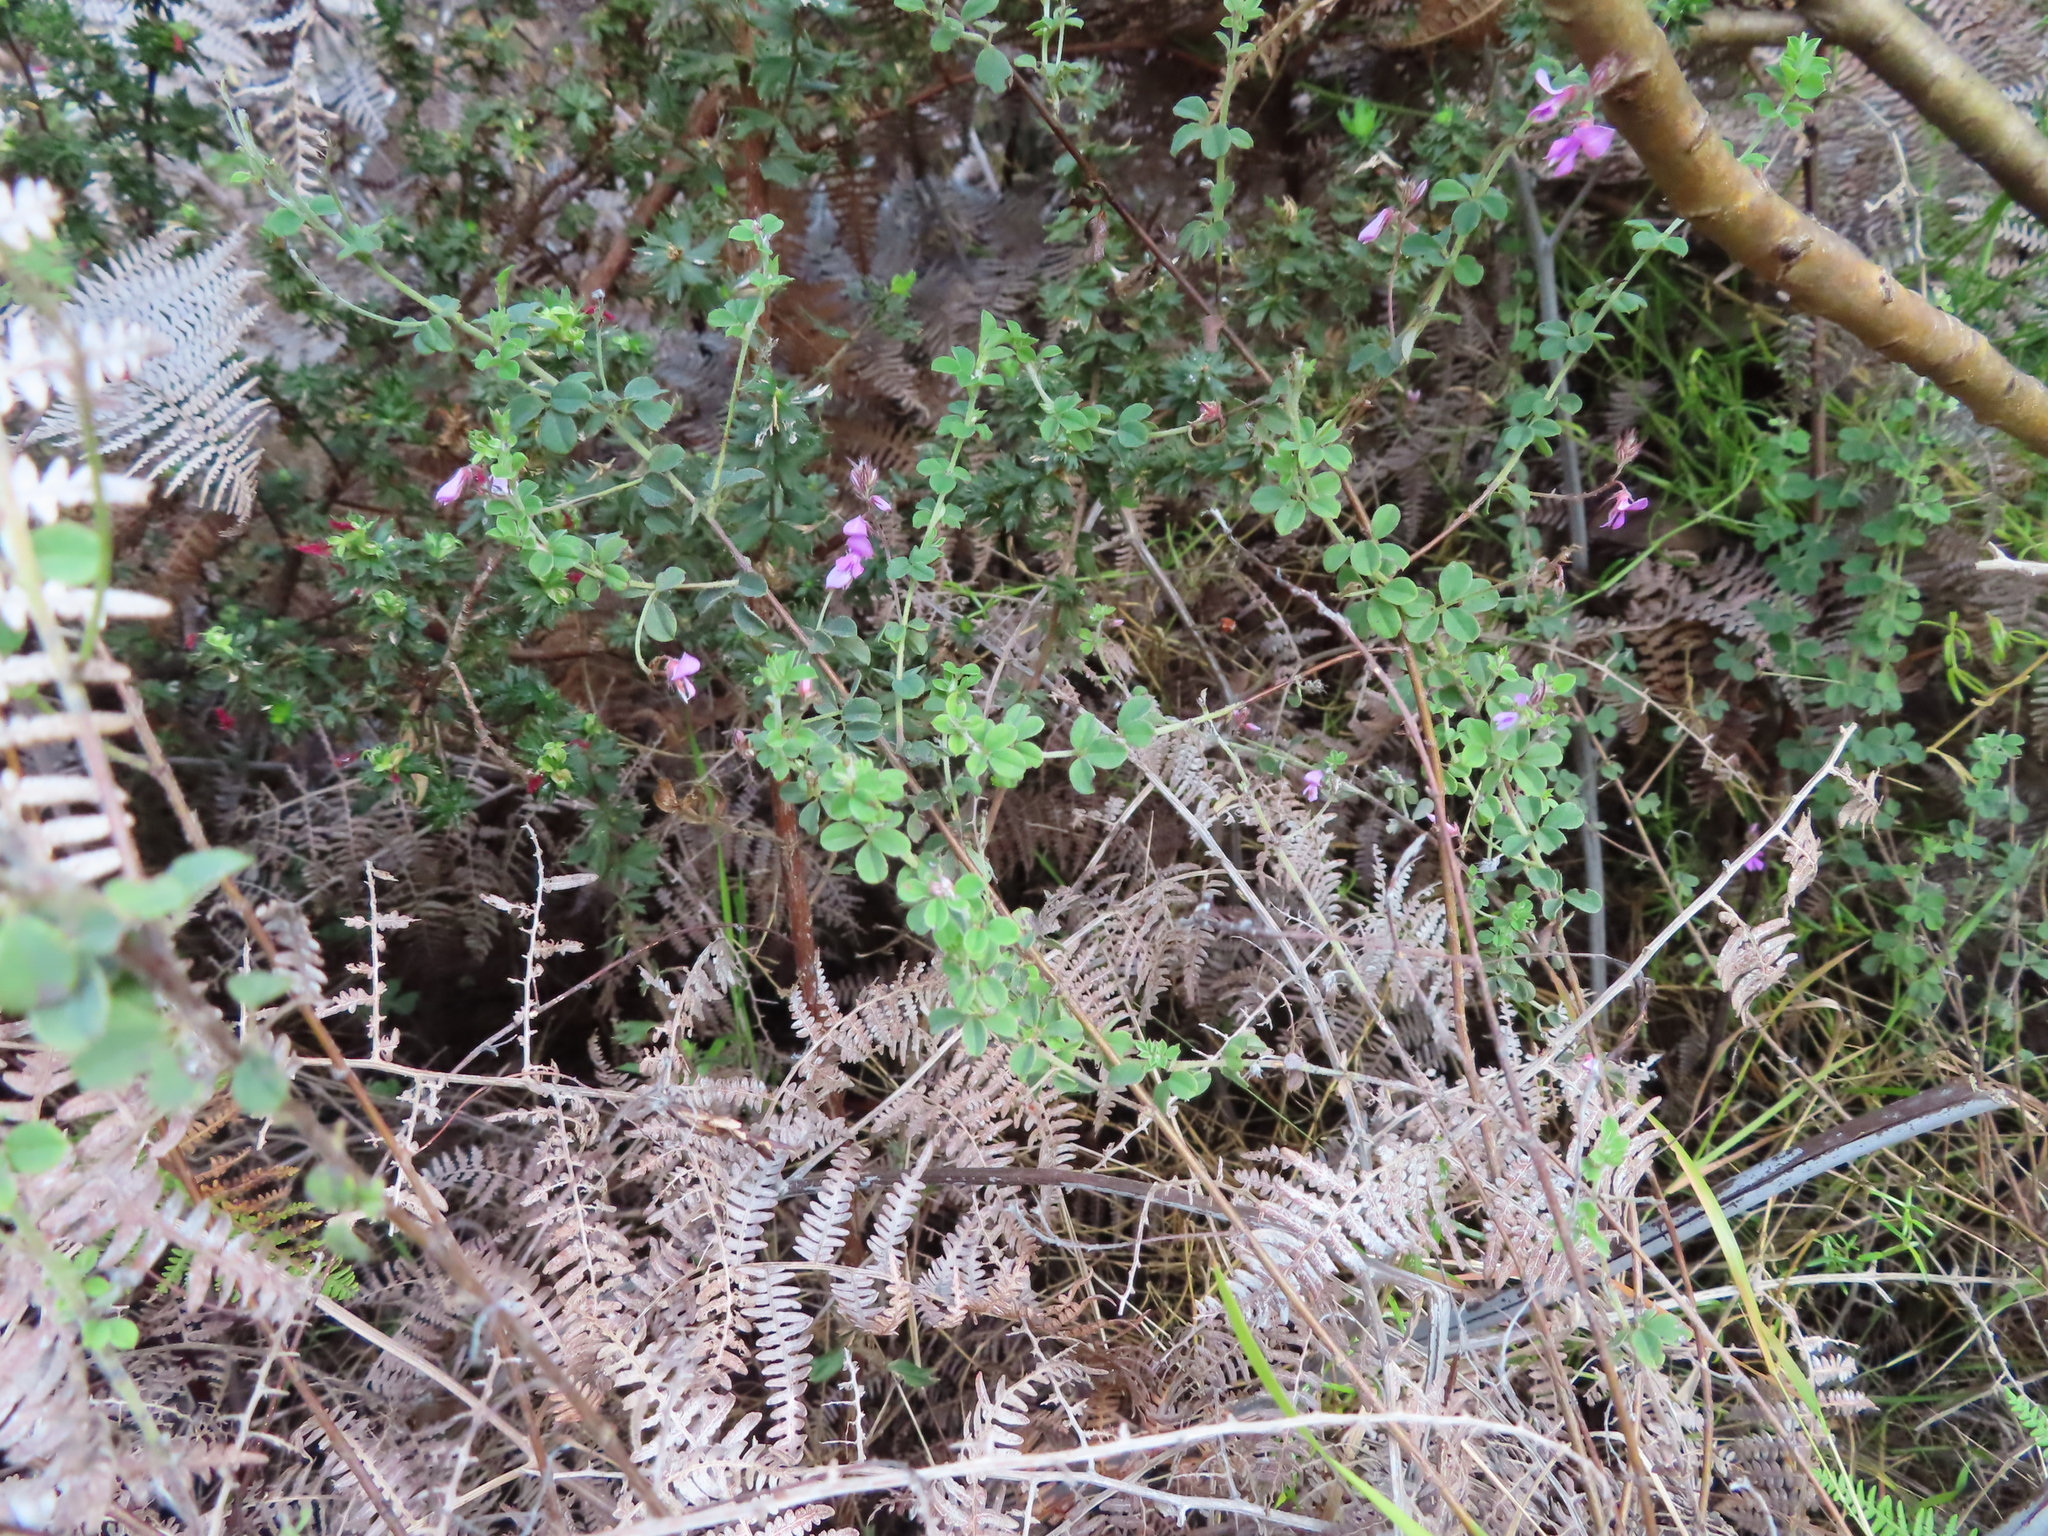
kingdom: Plantae
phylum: Tracheophyta
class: Magnoliopsida
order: Fabales
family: Fabaceae
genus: Indigofera
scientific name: Indigofera alopecuroides
